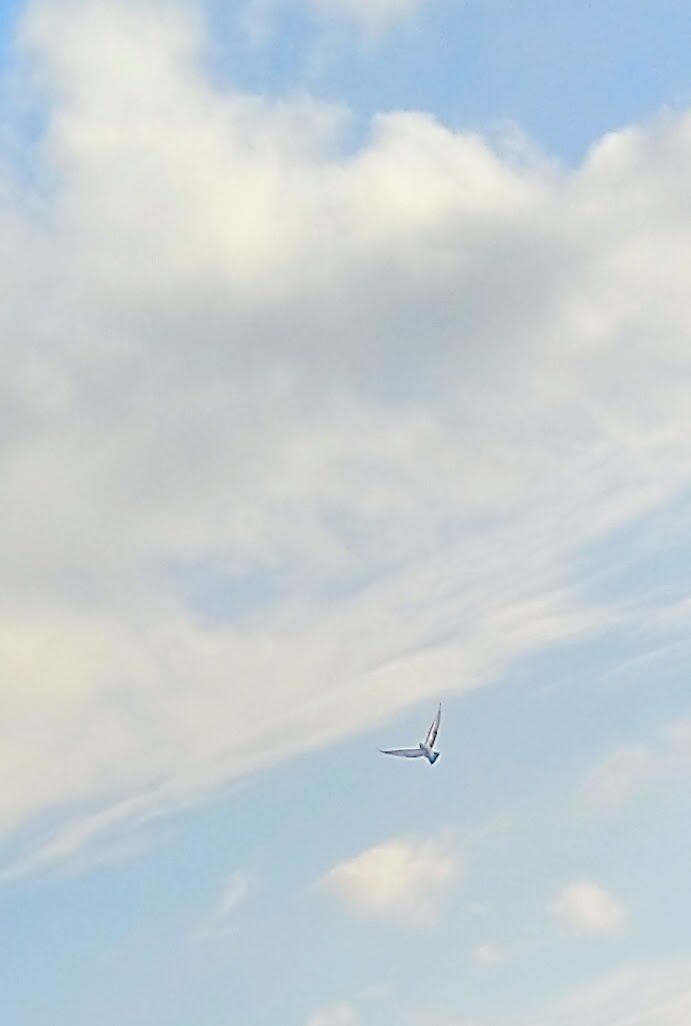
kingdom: Animalia
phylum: Chordata
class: Aves
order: Columbiformes
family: Columbidae
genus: Columba
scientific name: Columba livia
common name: Rock pigeon
